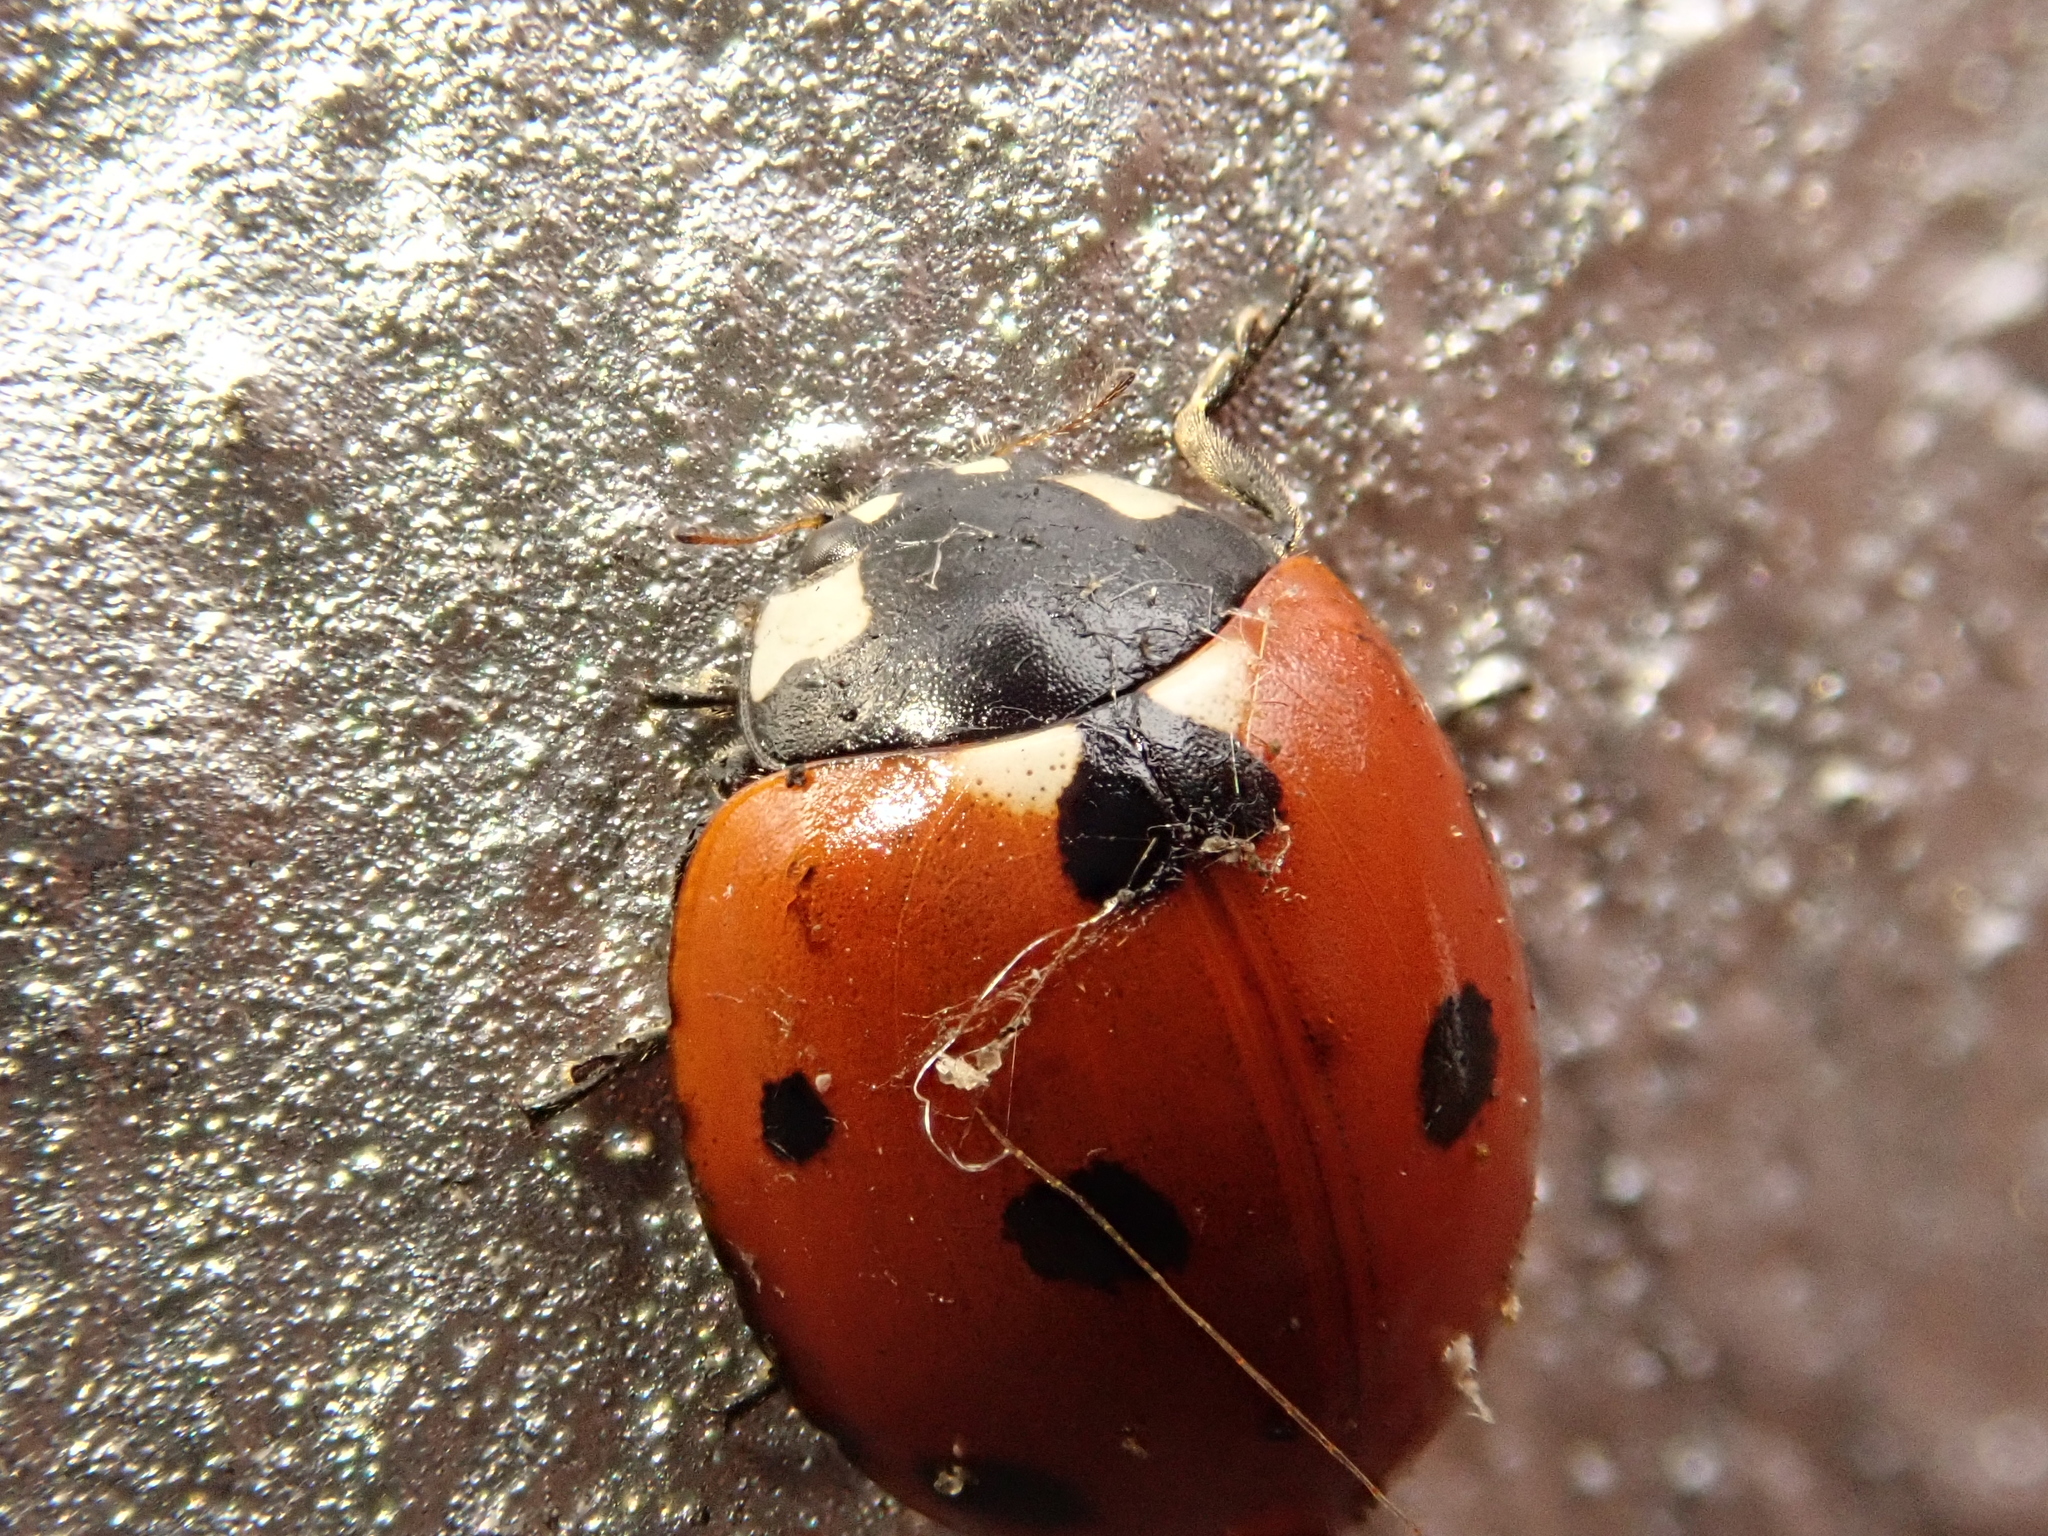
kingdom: Animalia
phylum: Arthropoda
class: Insecta
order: Coleoptera
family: Coccinellidae
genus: Coccinella
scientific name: Coccinella septempunctata
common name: Sevenspotted lady beetle
